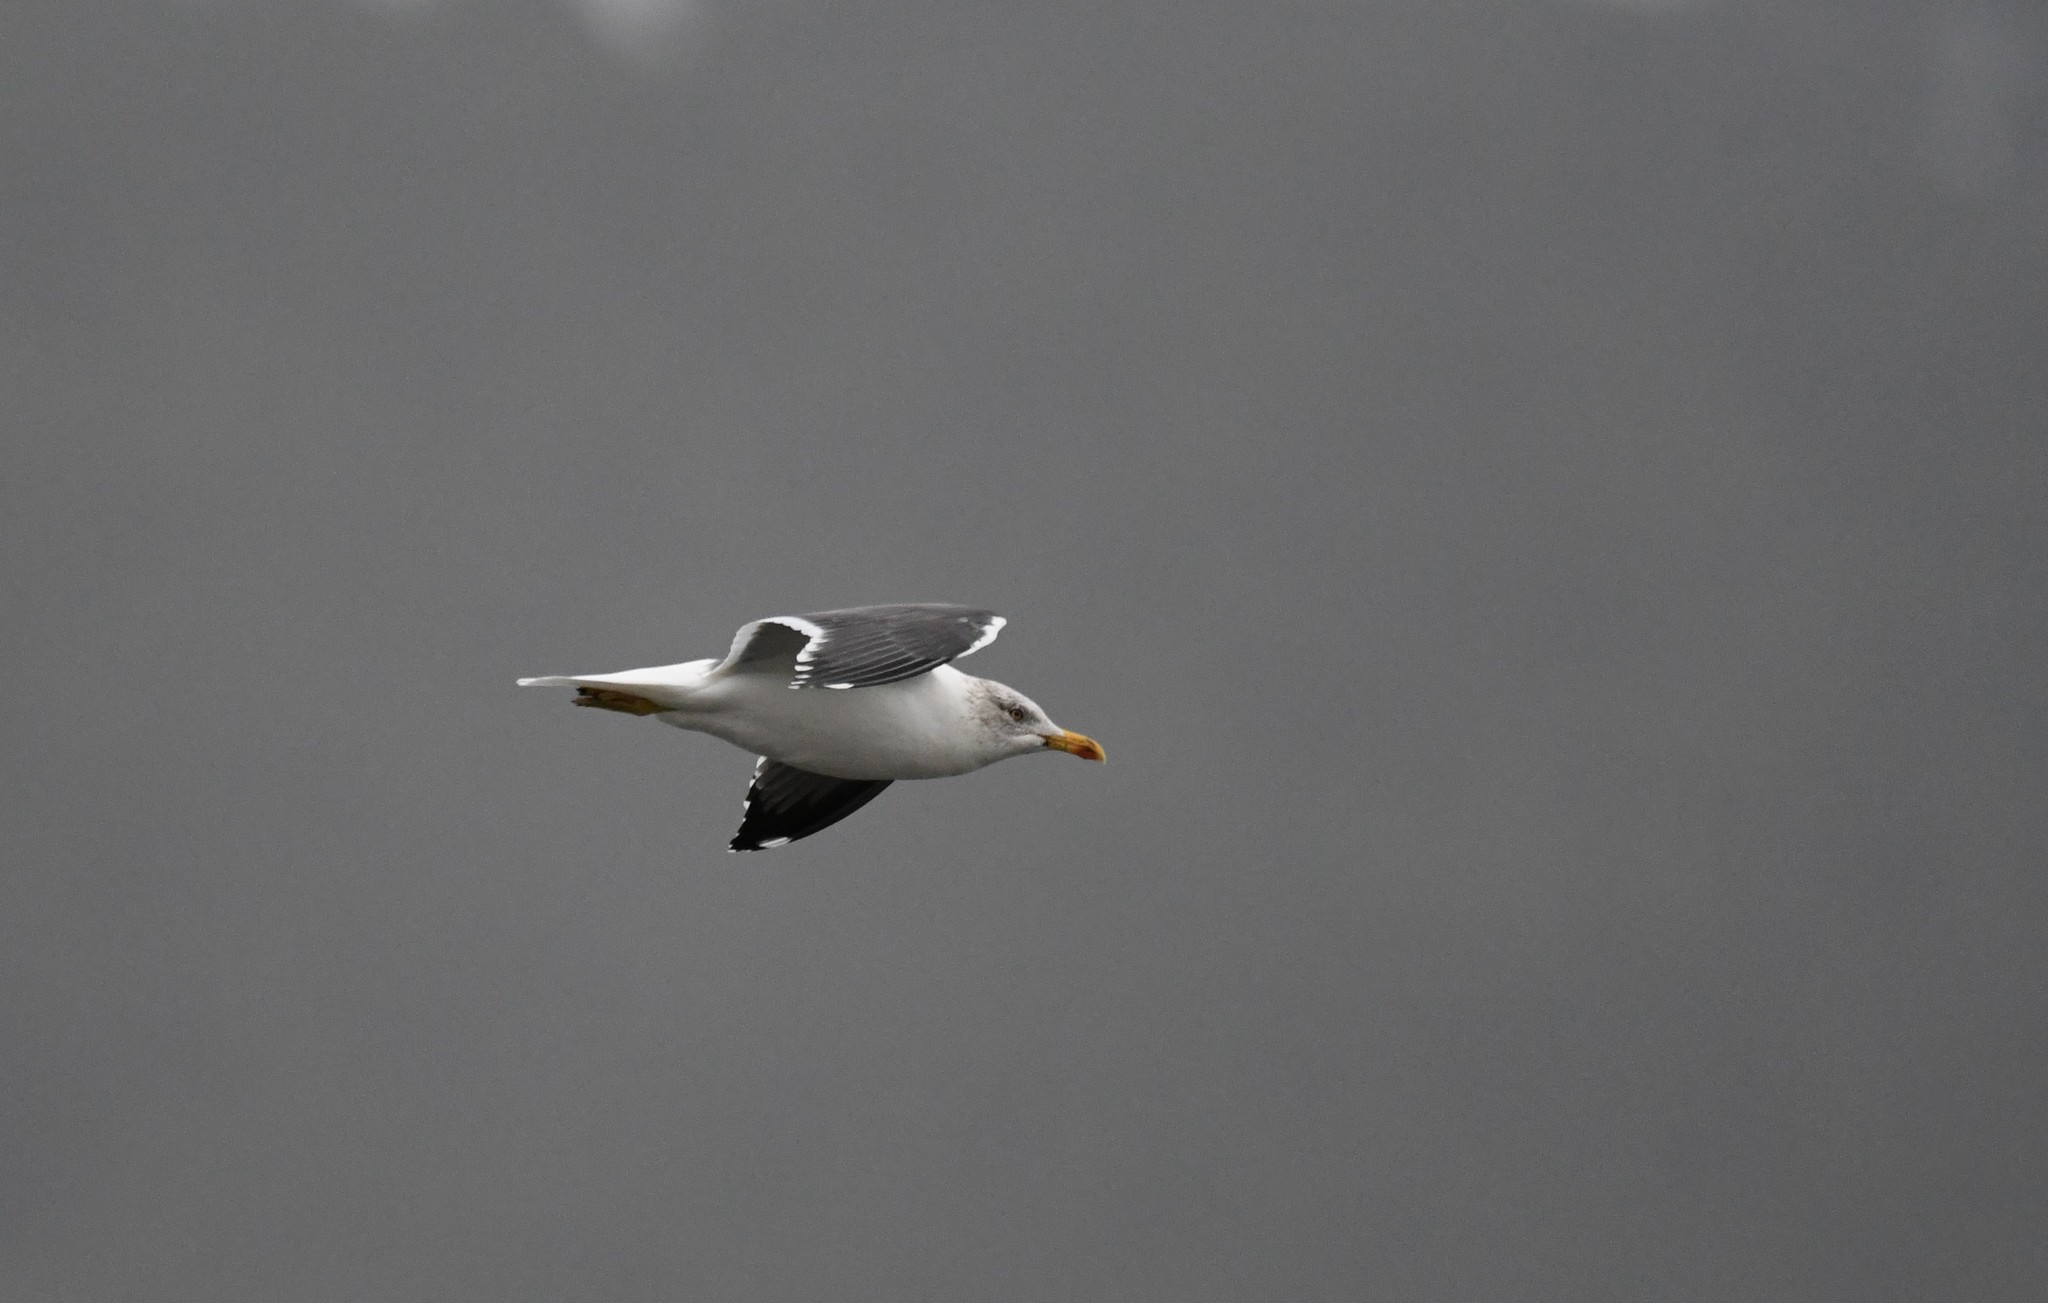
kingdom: Animalia
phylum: Chordata
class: Aves
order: Charadriiformes
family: Laridae
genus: Larus
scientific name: Larus fuscus
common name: Lesser black-backed gull
